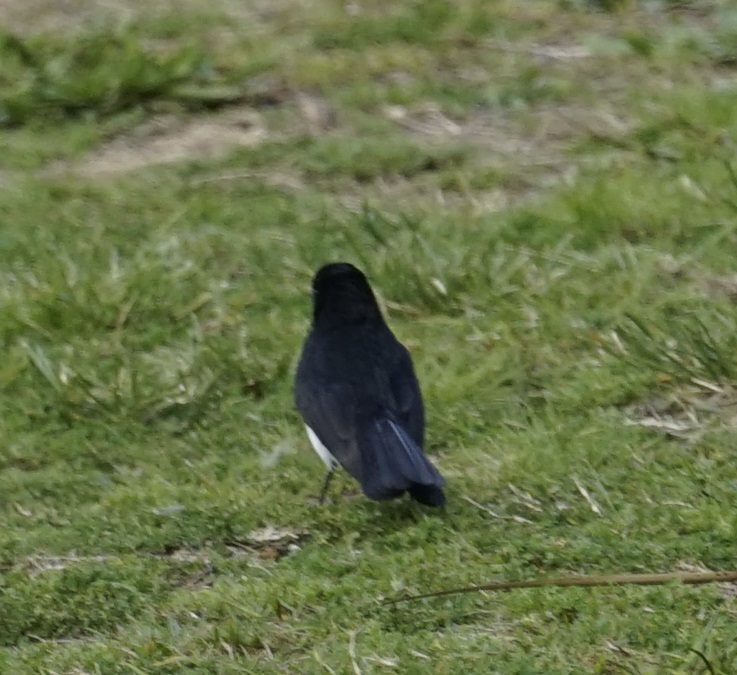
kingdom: Animalia
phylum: Chordata
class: Aves
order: Passeriformes
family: Rhipiduridae
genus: Rhipidura
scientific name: Rhipidura leucophrys
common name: Willie wagtail
